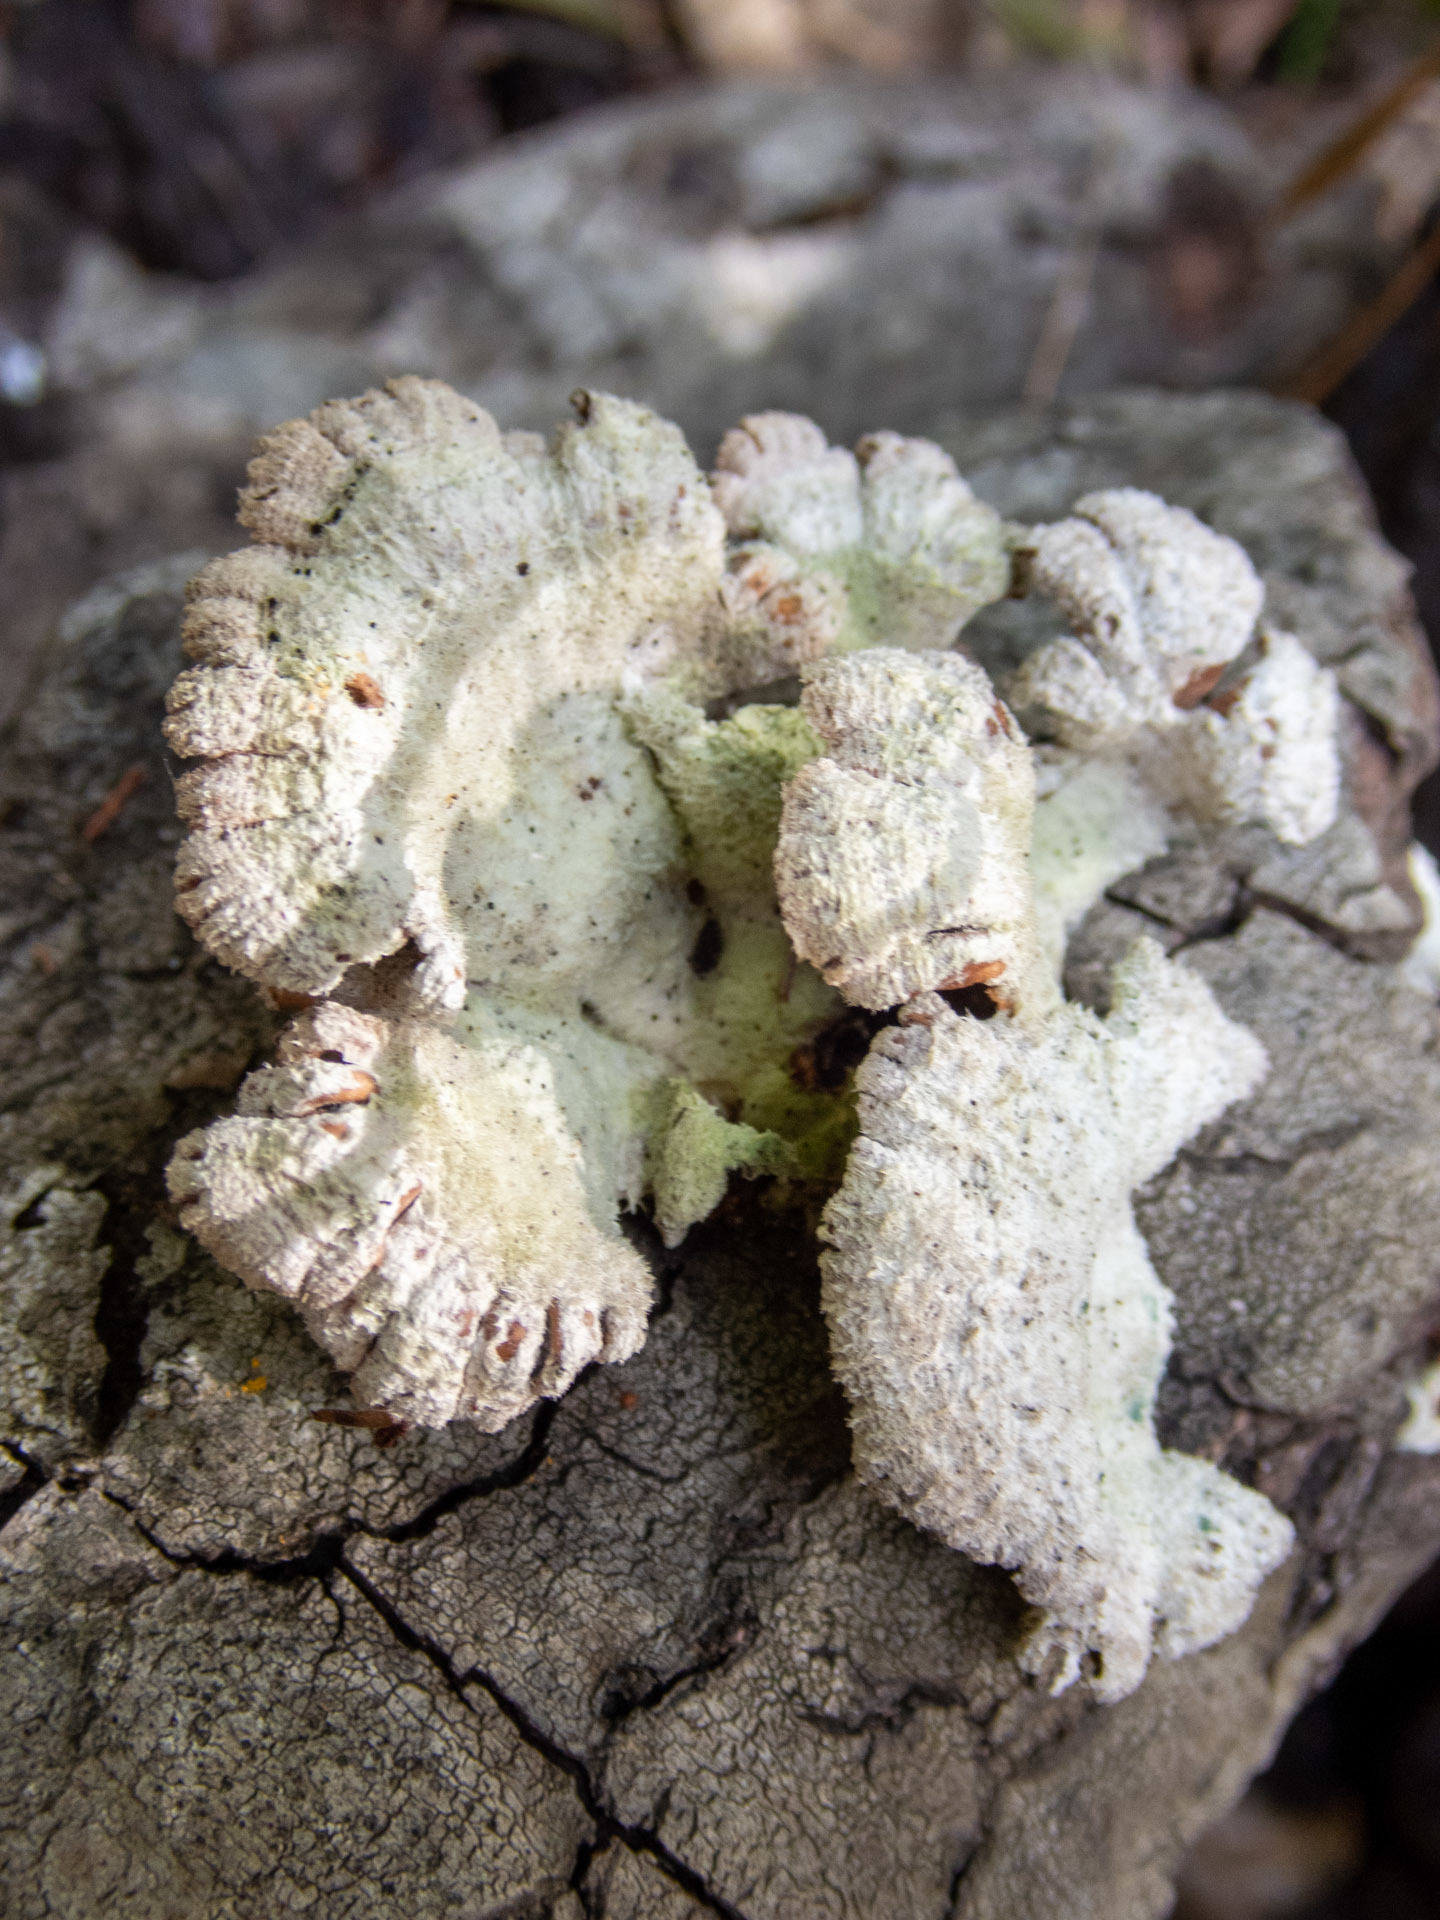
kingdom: Fungi
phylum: Basidiomycota
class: Agaricomycetes
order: Agaricales
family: Schizophyllaceae
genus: Schizophyllum
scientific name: Schizophyllum commune
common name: Common porecrust
